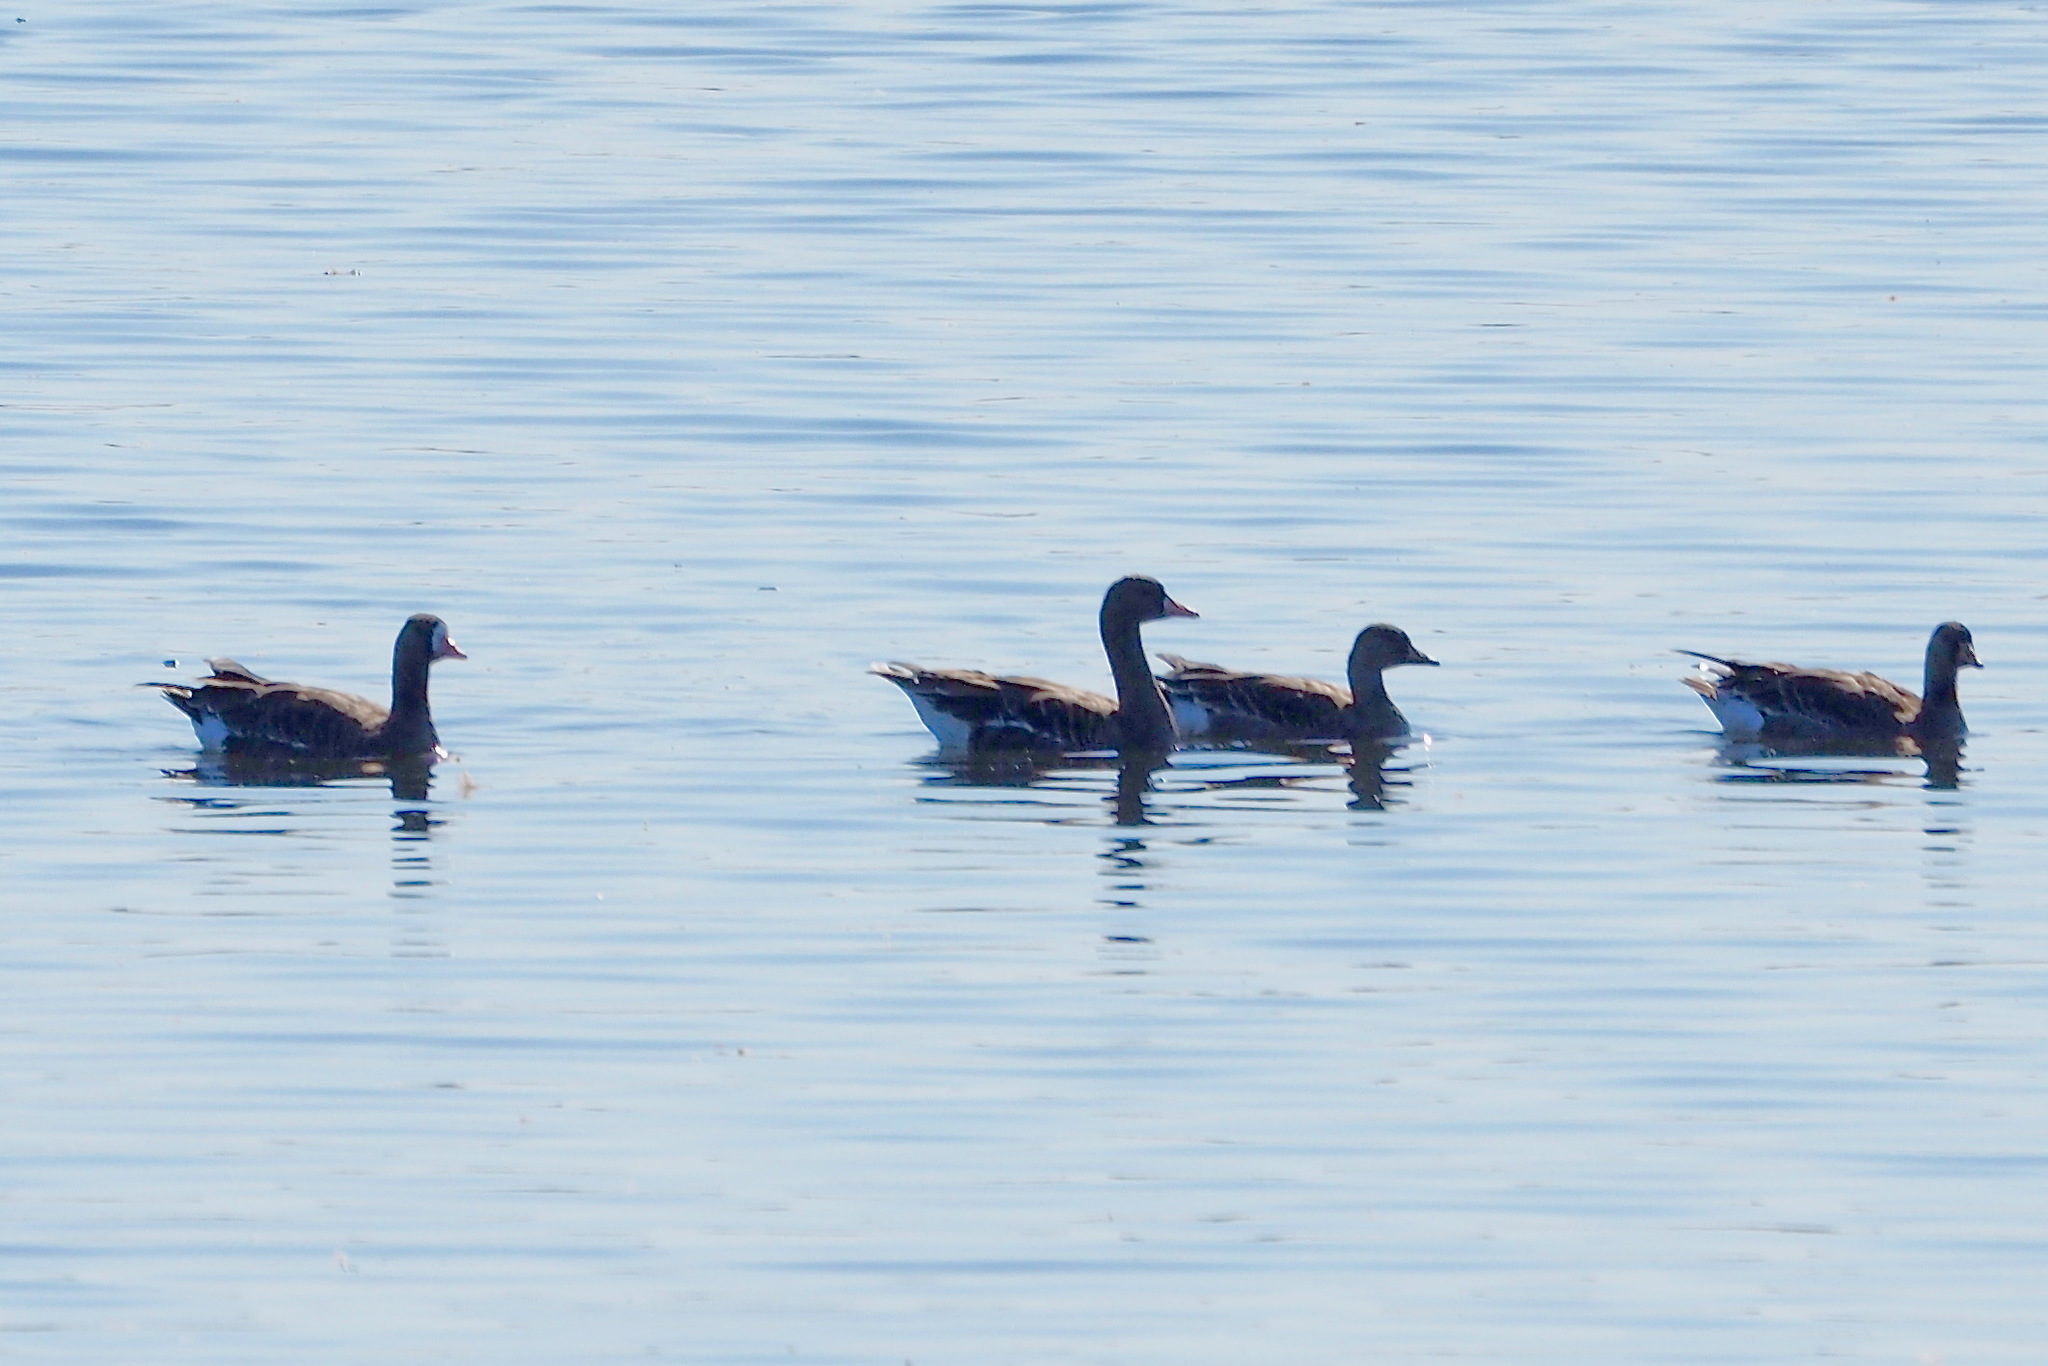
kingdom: Animalia
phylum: Chordata
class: Aves
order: Anseriformes
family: Anatidae
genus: Anser
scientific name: Anser albifrons
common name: Greater white-fronted goose
